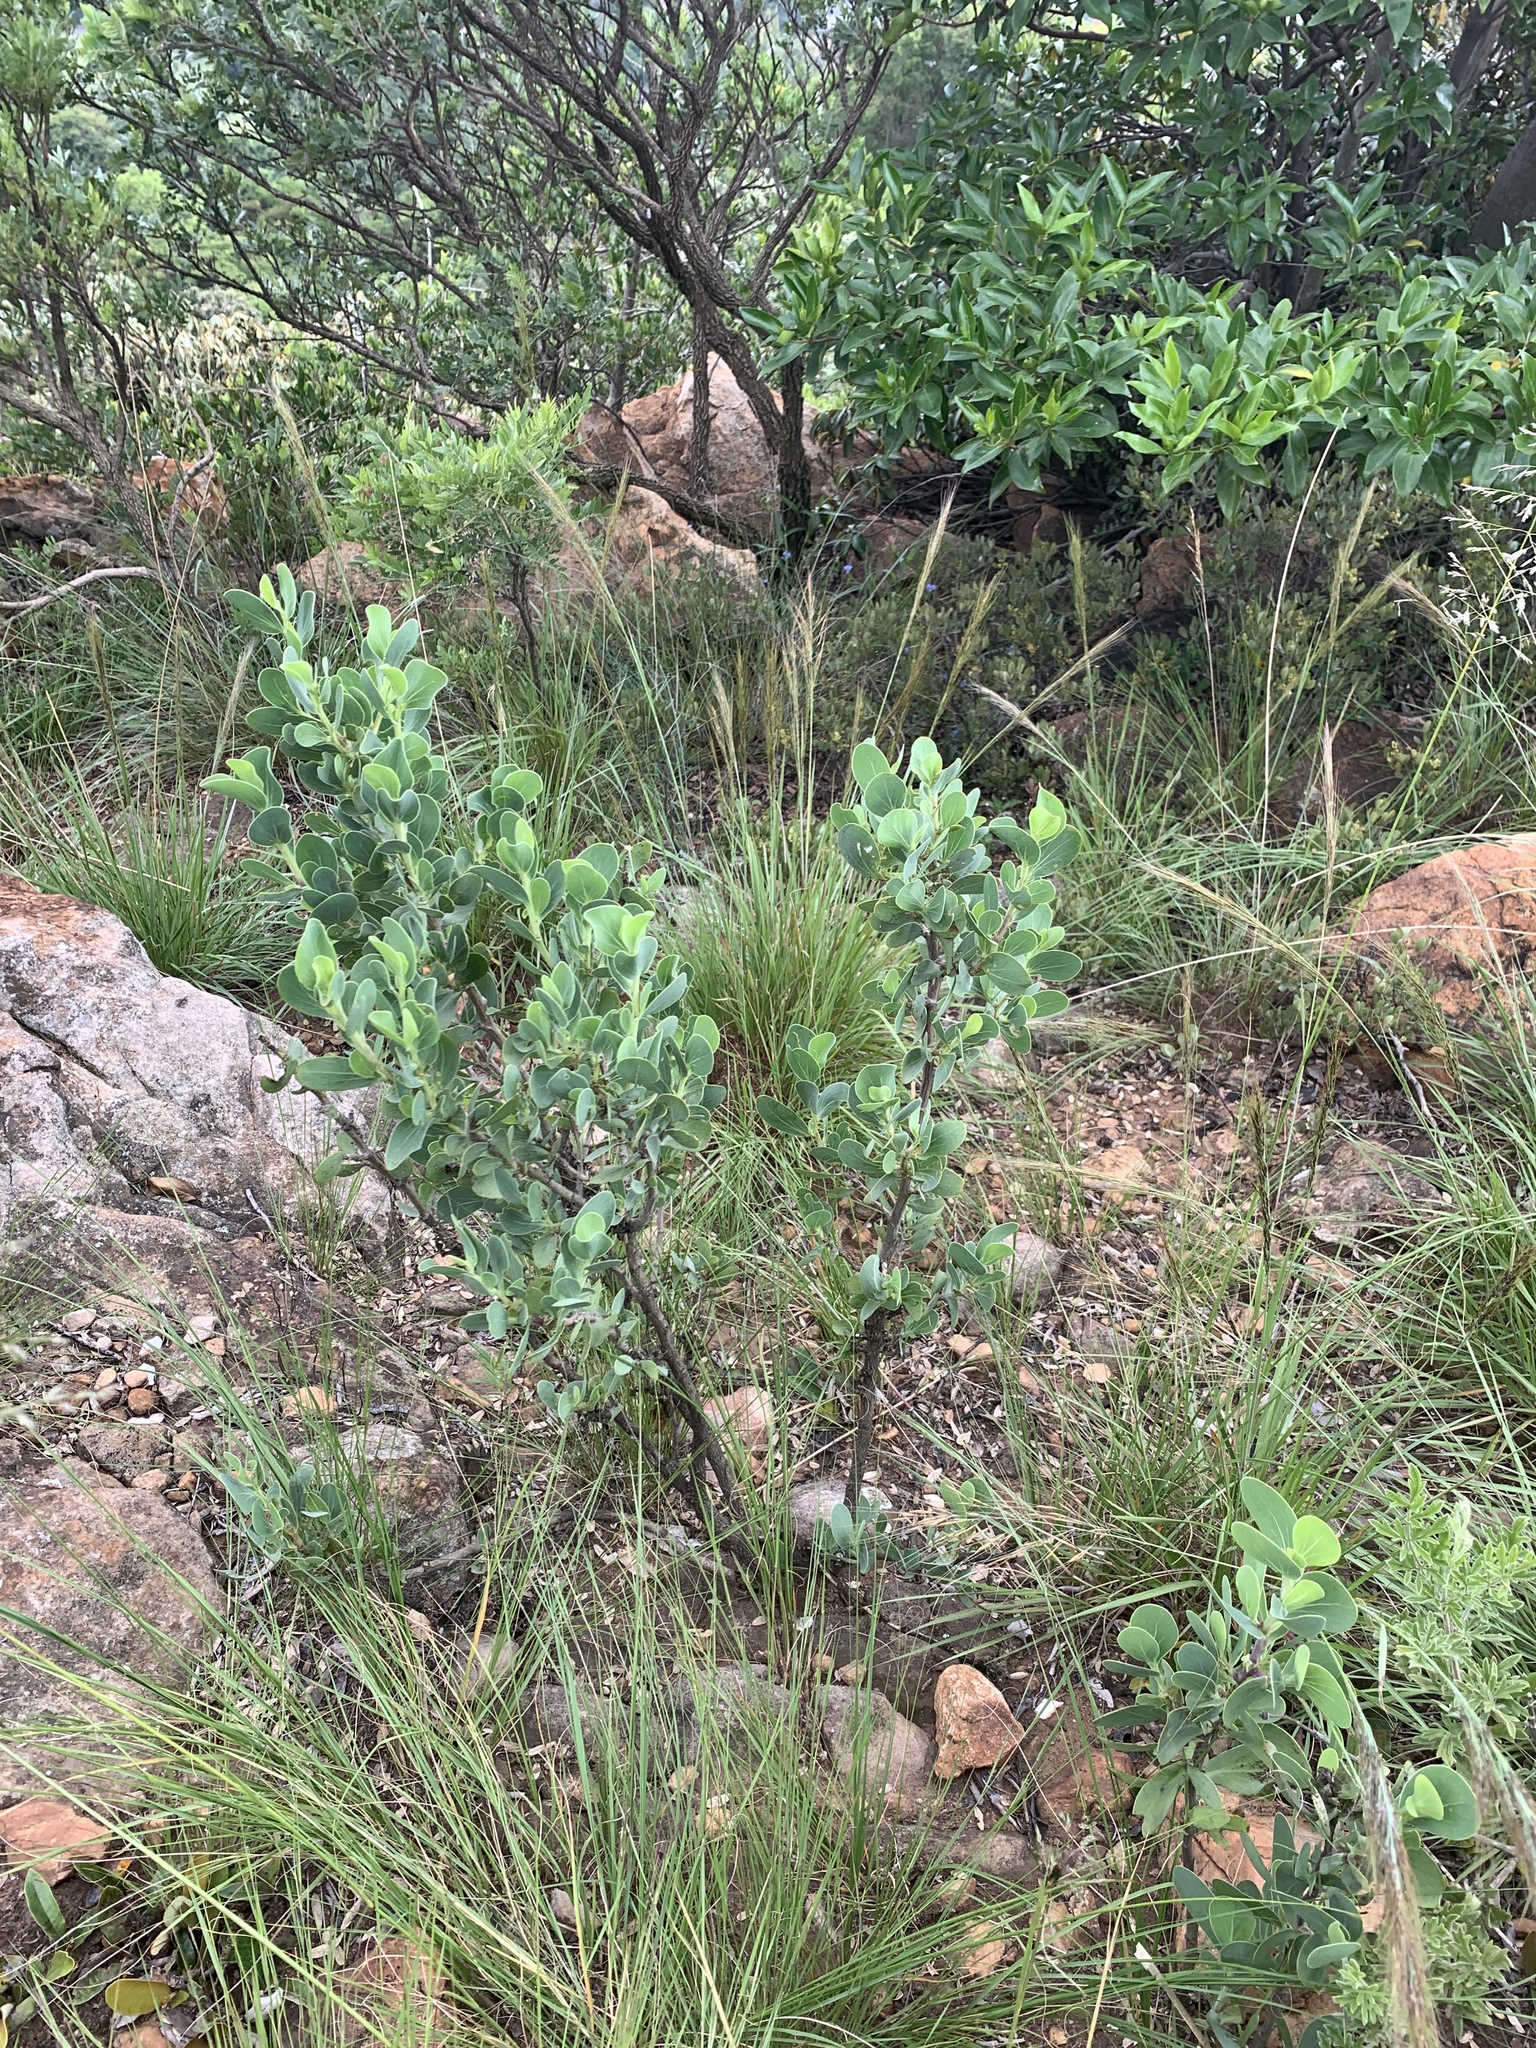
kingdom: Plantae
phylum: Tracheophyta
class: Magnoliopsida
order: Asterales
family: Asteraceae
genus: Lopholaena
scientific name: Lopholaena coriifolia
